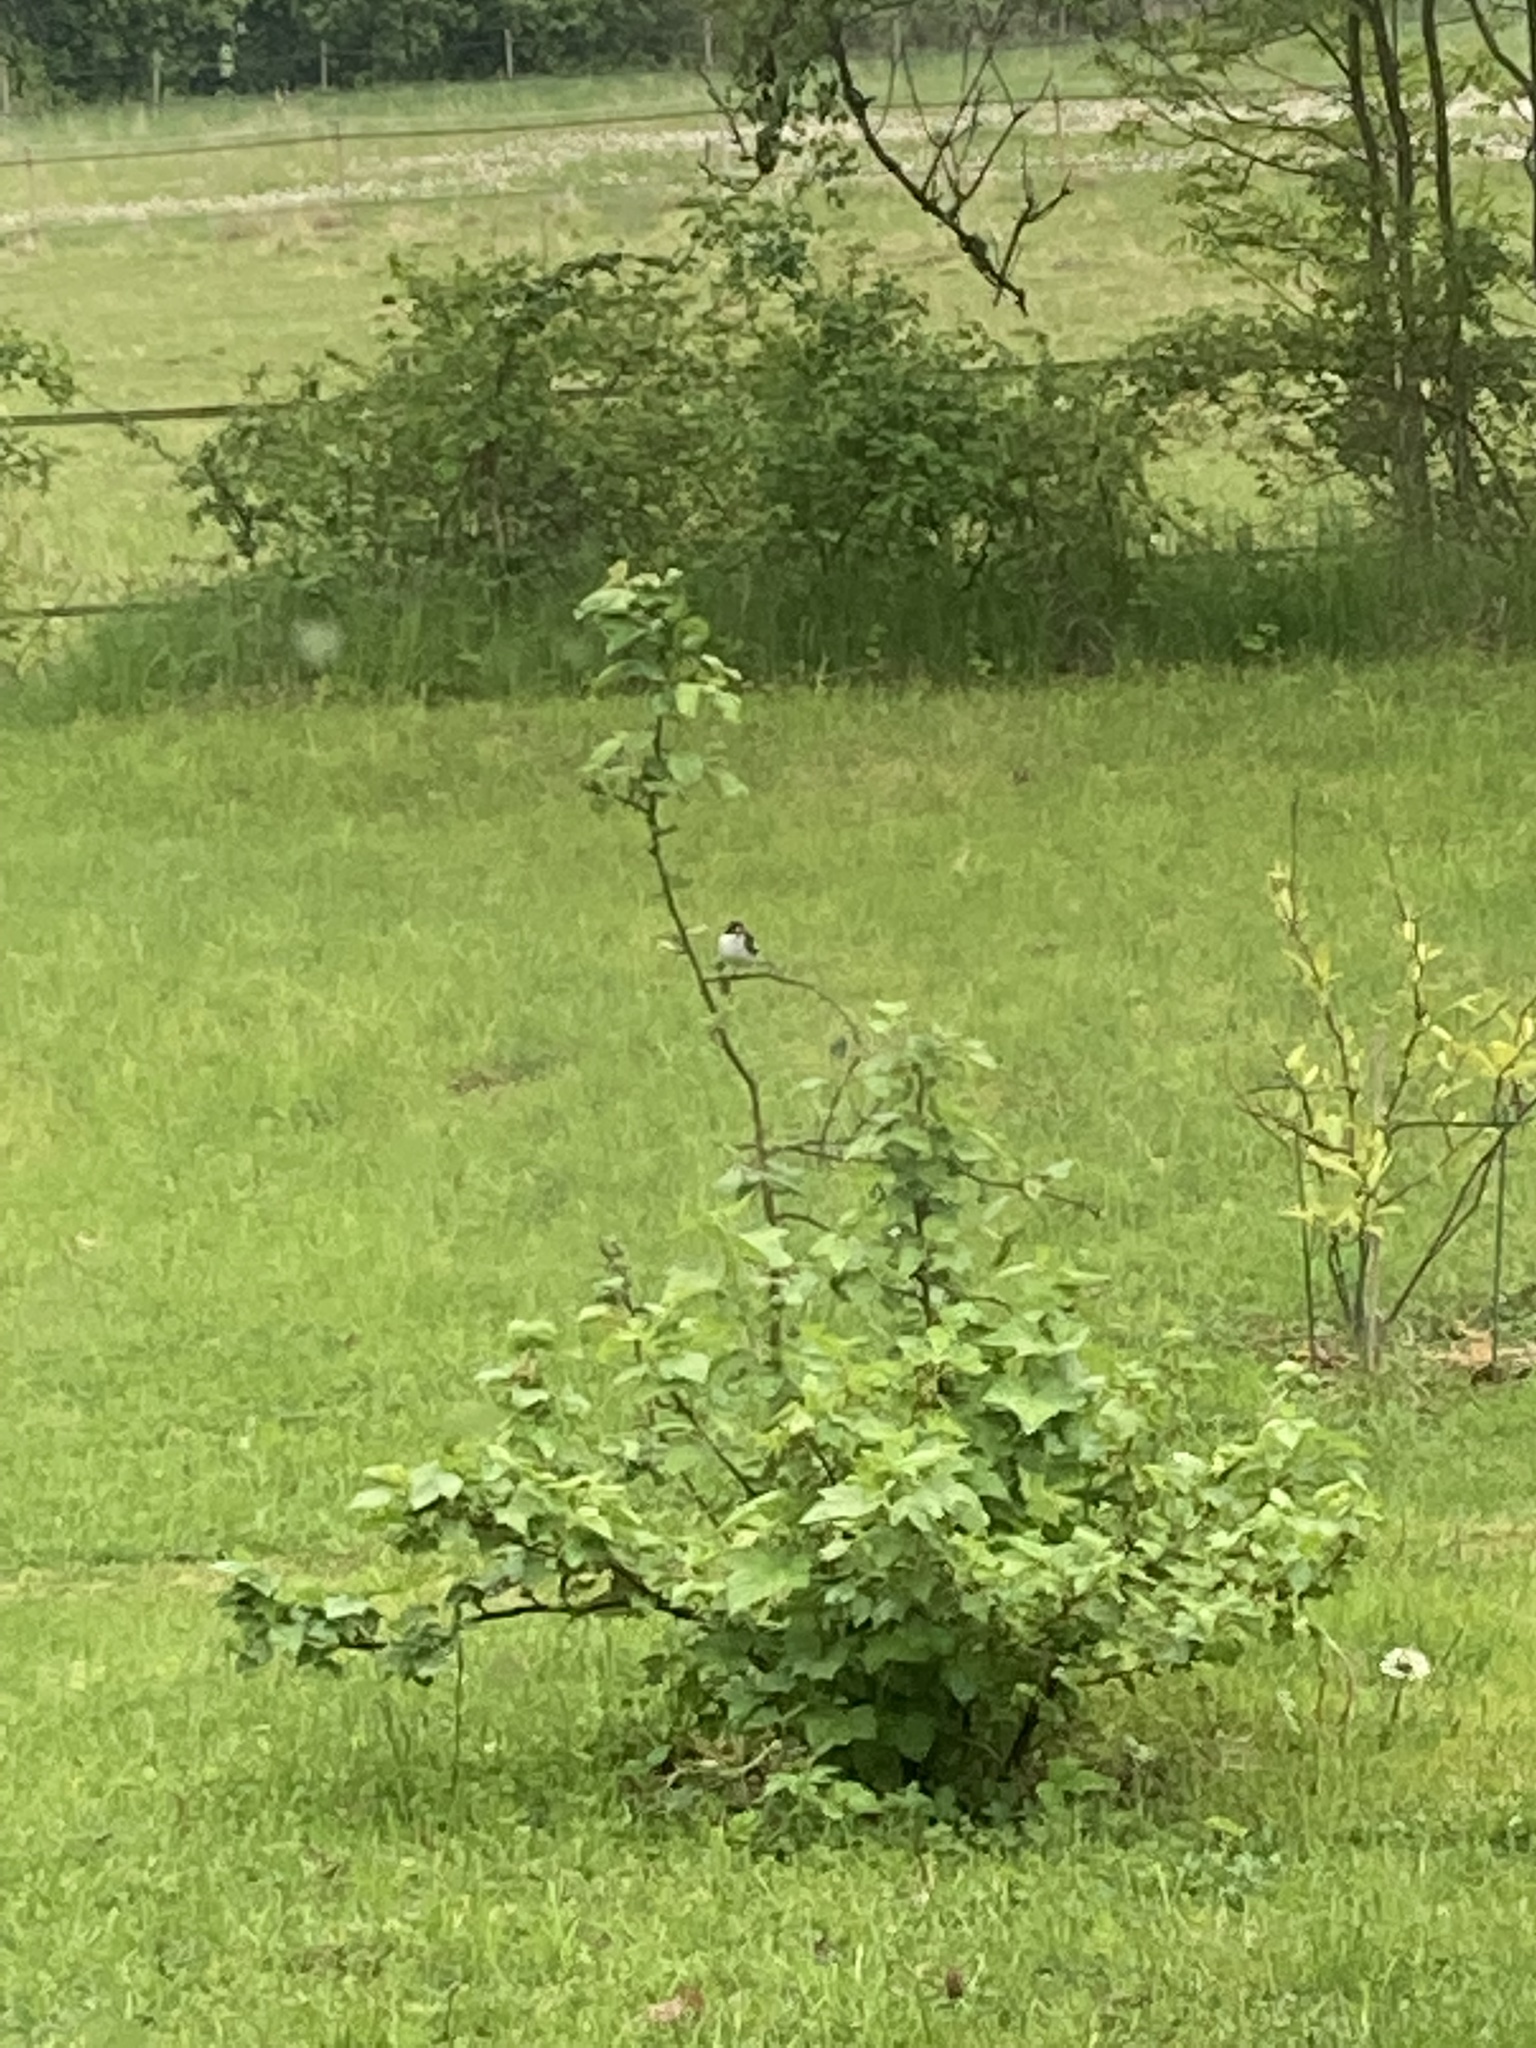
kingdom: Animalia
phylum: Chordata
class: Aves
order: Passeriformes
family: Muscicapidae
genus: Ficedula
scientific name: Ficedula hypoleuca
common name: European pied flycatcher
